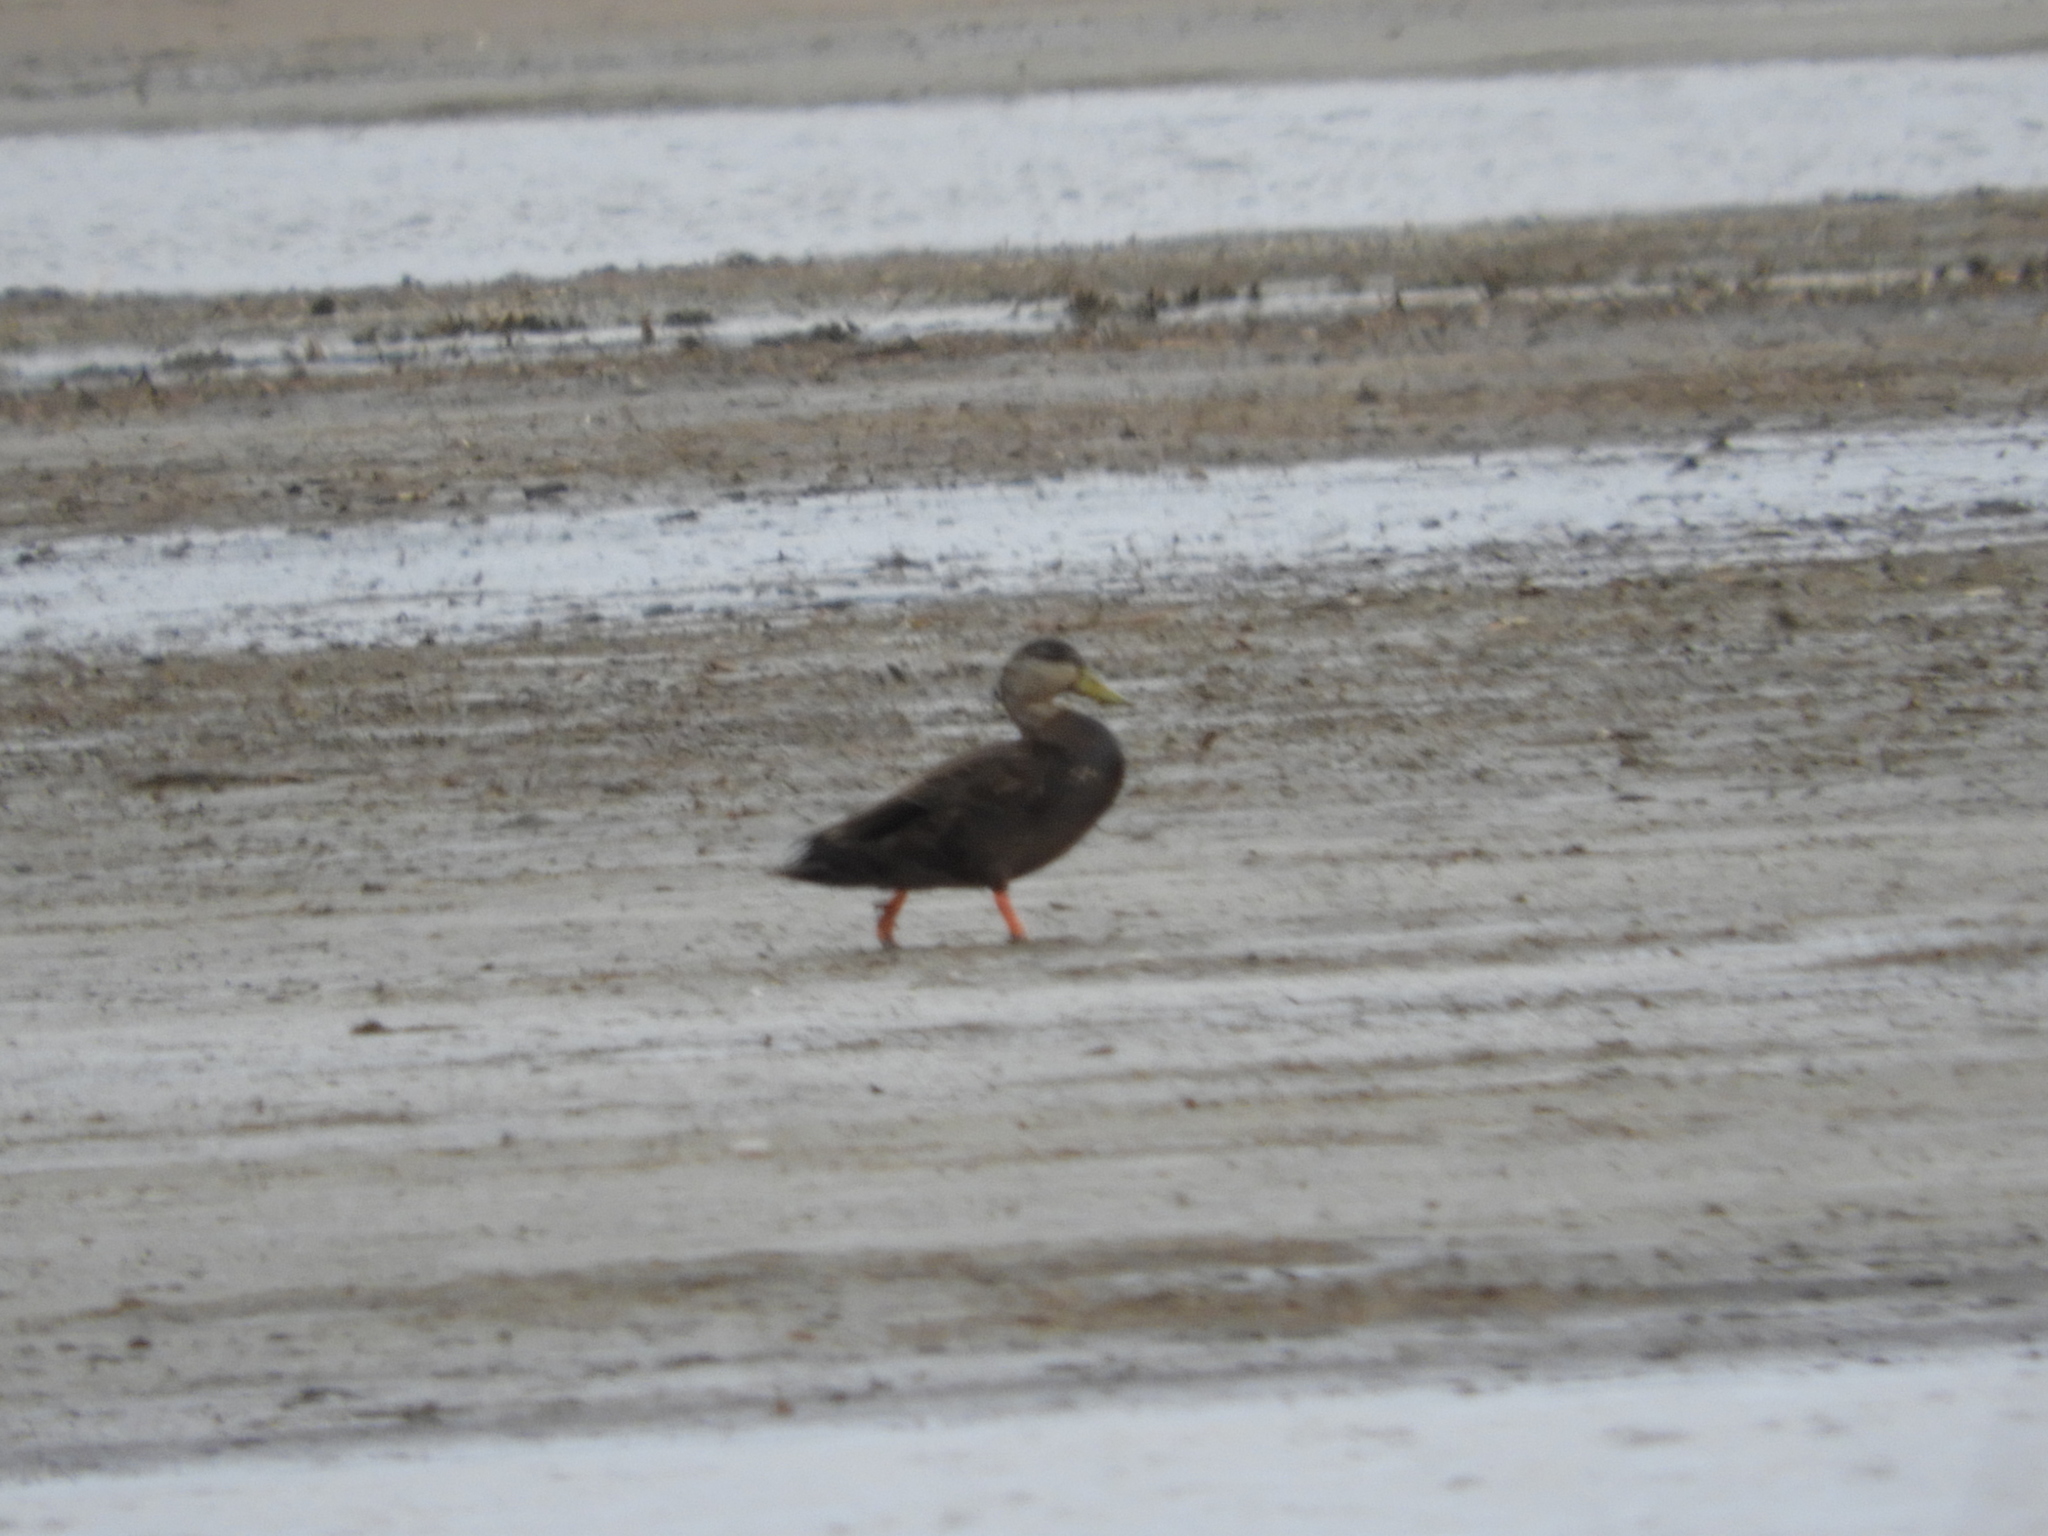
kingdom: Animalia
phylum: Chordata
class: Aves
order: Anseriformes
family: Anatidae
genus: Anas
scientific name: Anas rubripes
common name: American black duck
